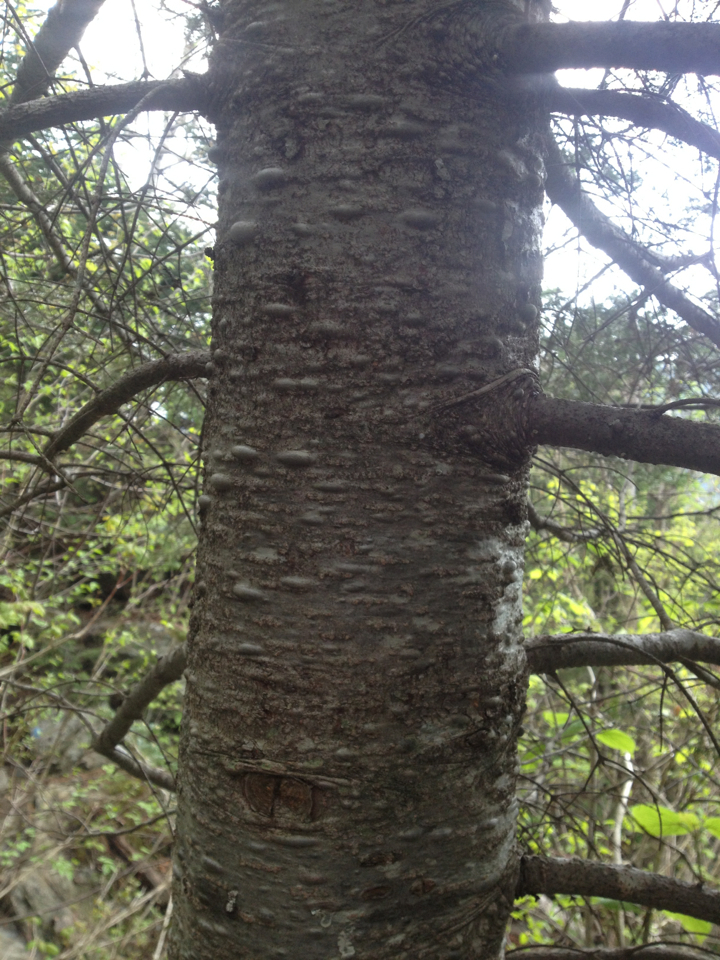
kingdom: Plantae
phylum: Tracheophyta
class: Pinopsida
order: Pinales
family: Pinaceae
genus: Abies
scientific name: Abies balsamea
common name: Balsam fir
